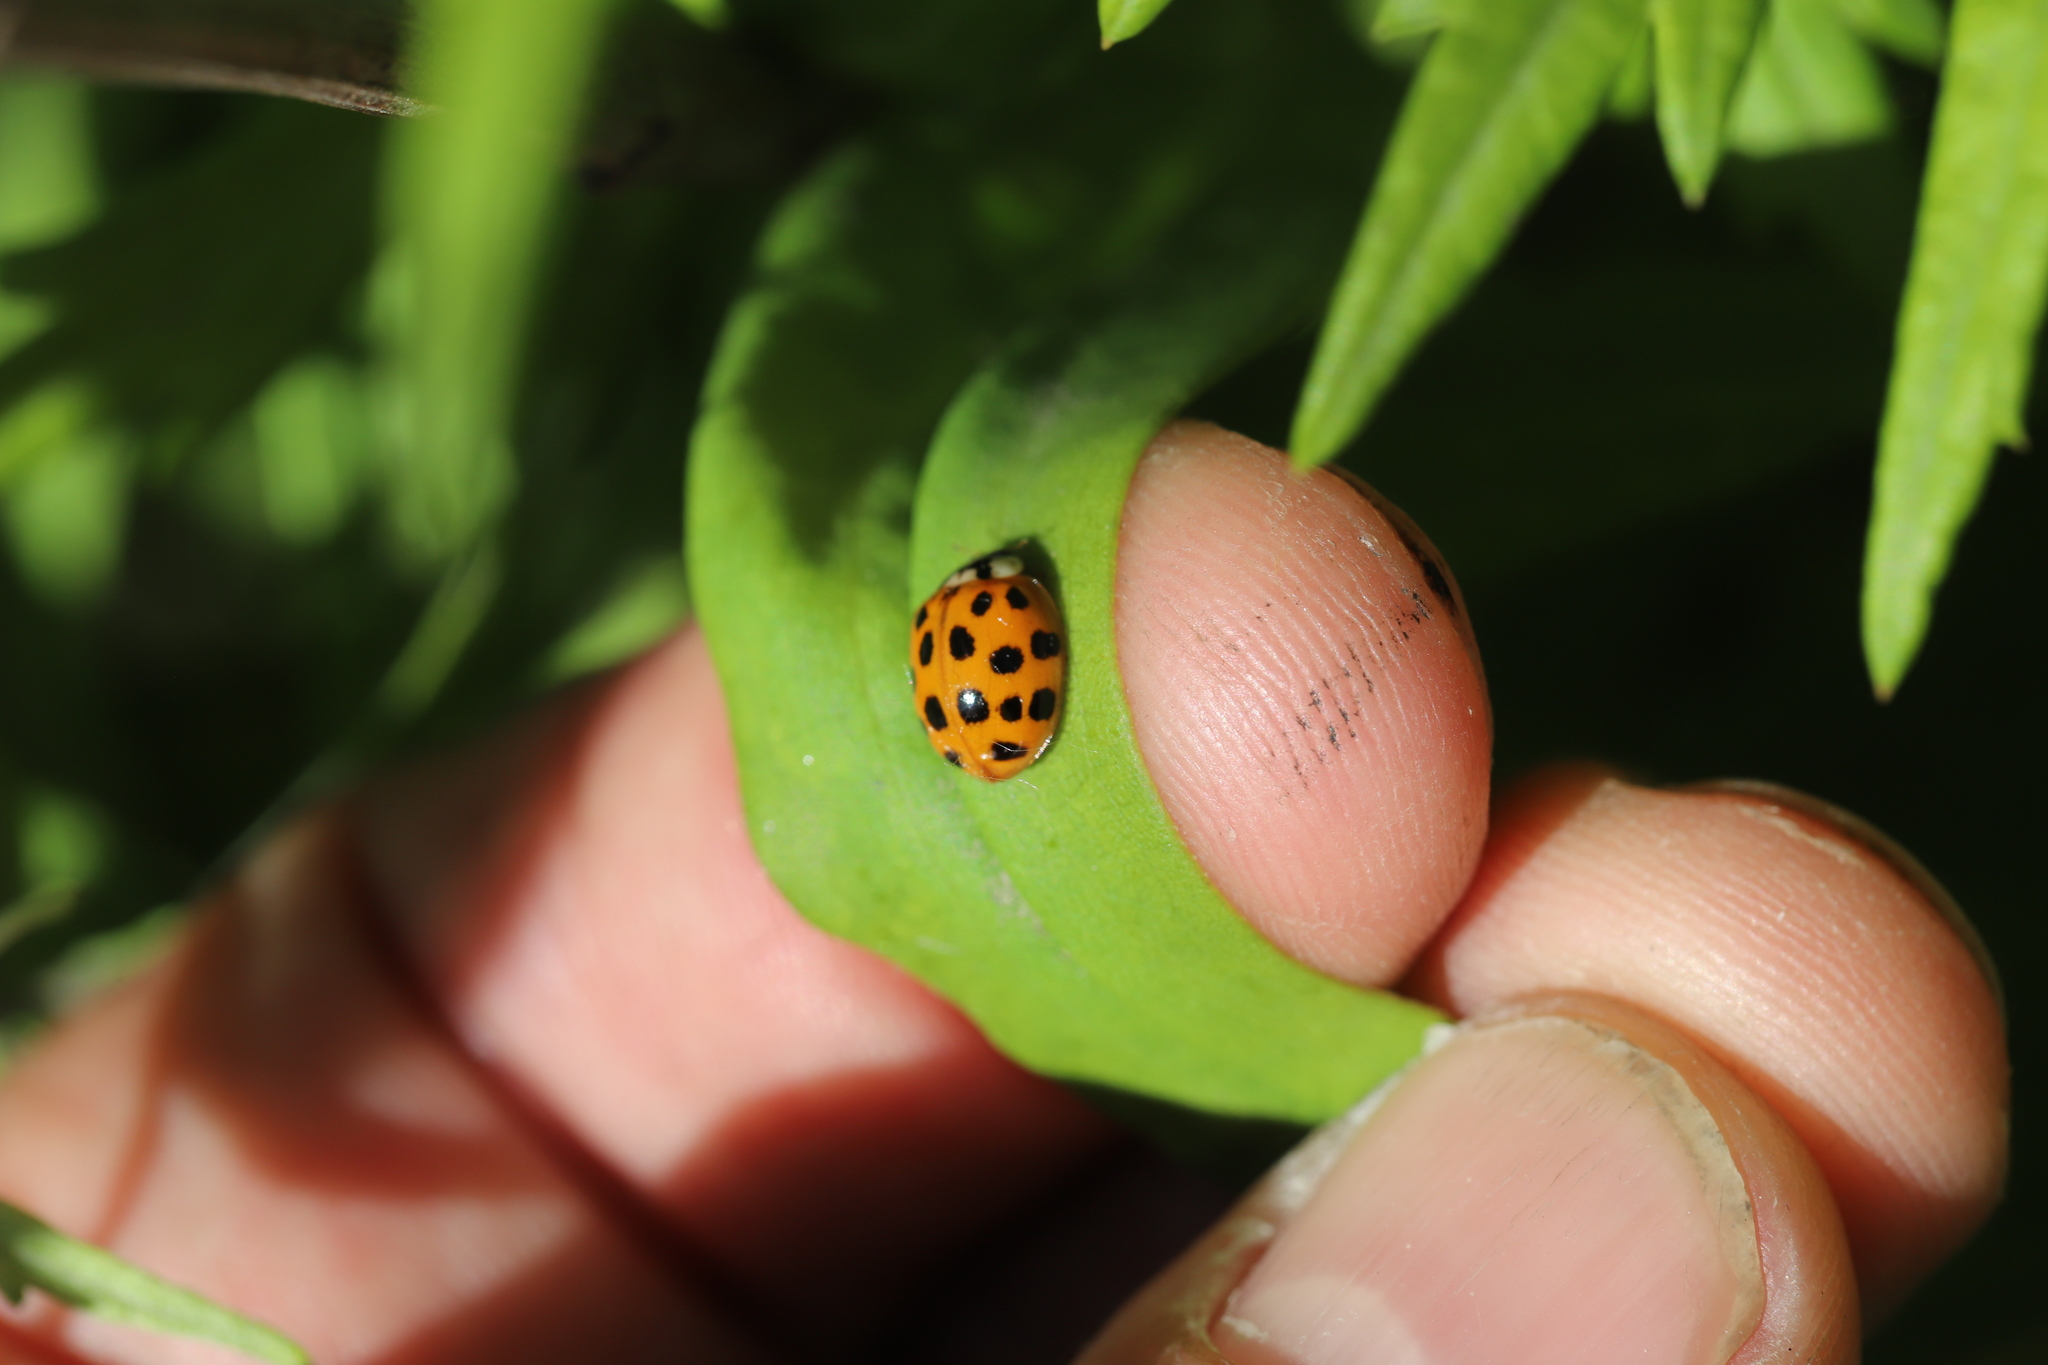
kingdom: Animalia
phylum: Arthropoda
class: Insecta
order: Coleoptera
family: Coccinellidae
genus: Harmonia
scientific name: Harmonia axyridis
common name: Harlequin ladybird
